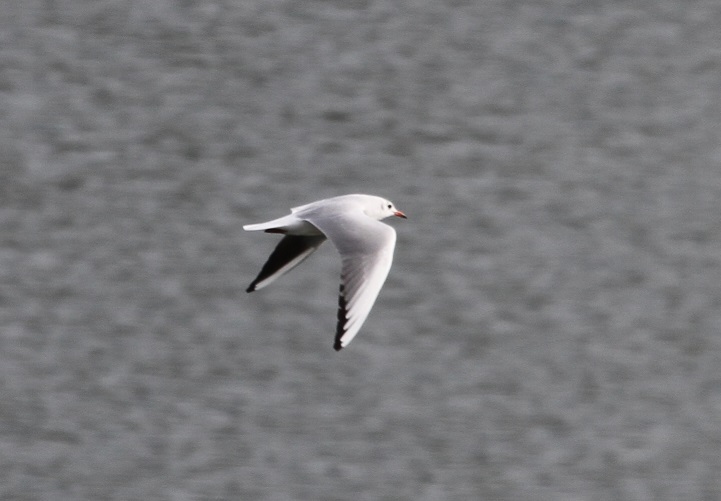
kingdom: Animalia
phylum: Chordata
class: Aves
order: Charadriiformes
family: Laridae
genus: Chroicocephalus
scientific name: Chroicocephalus ridibundus
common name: Black-headed gull
